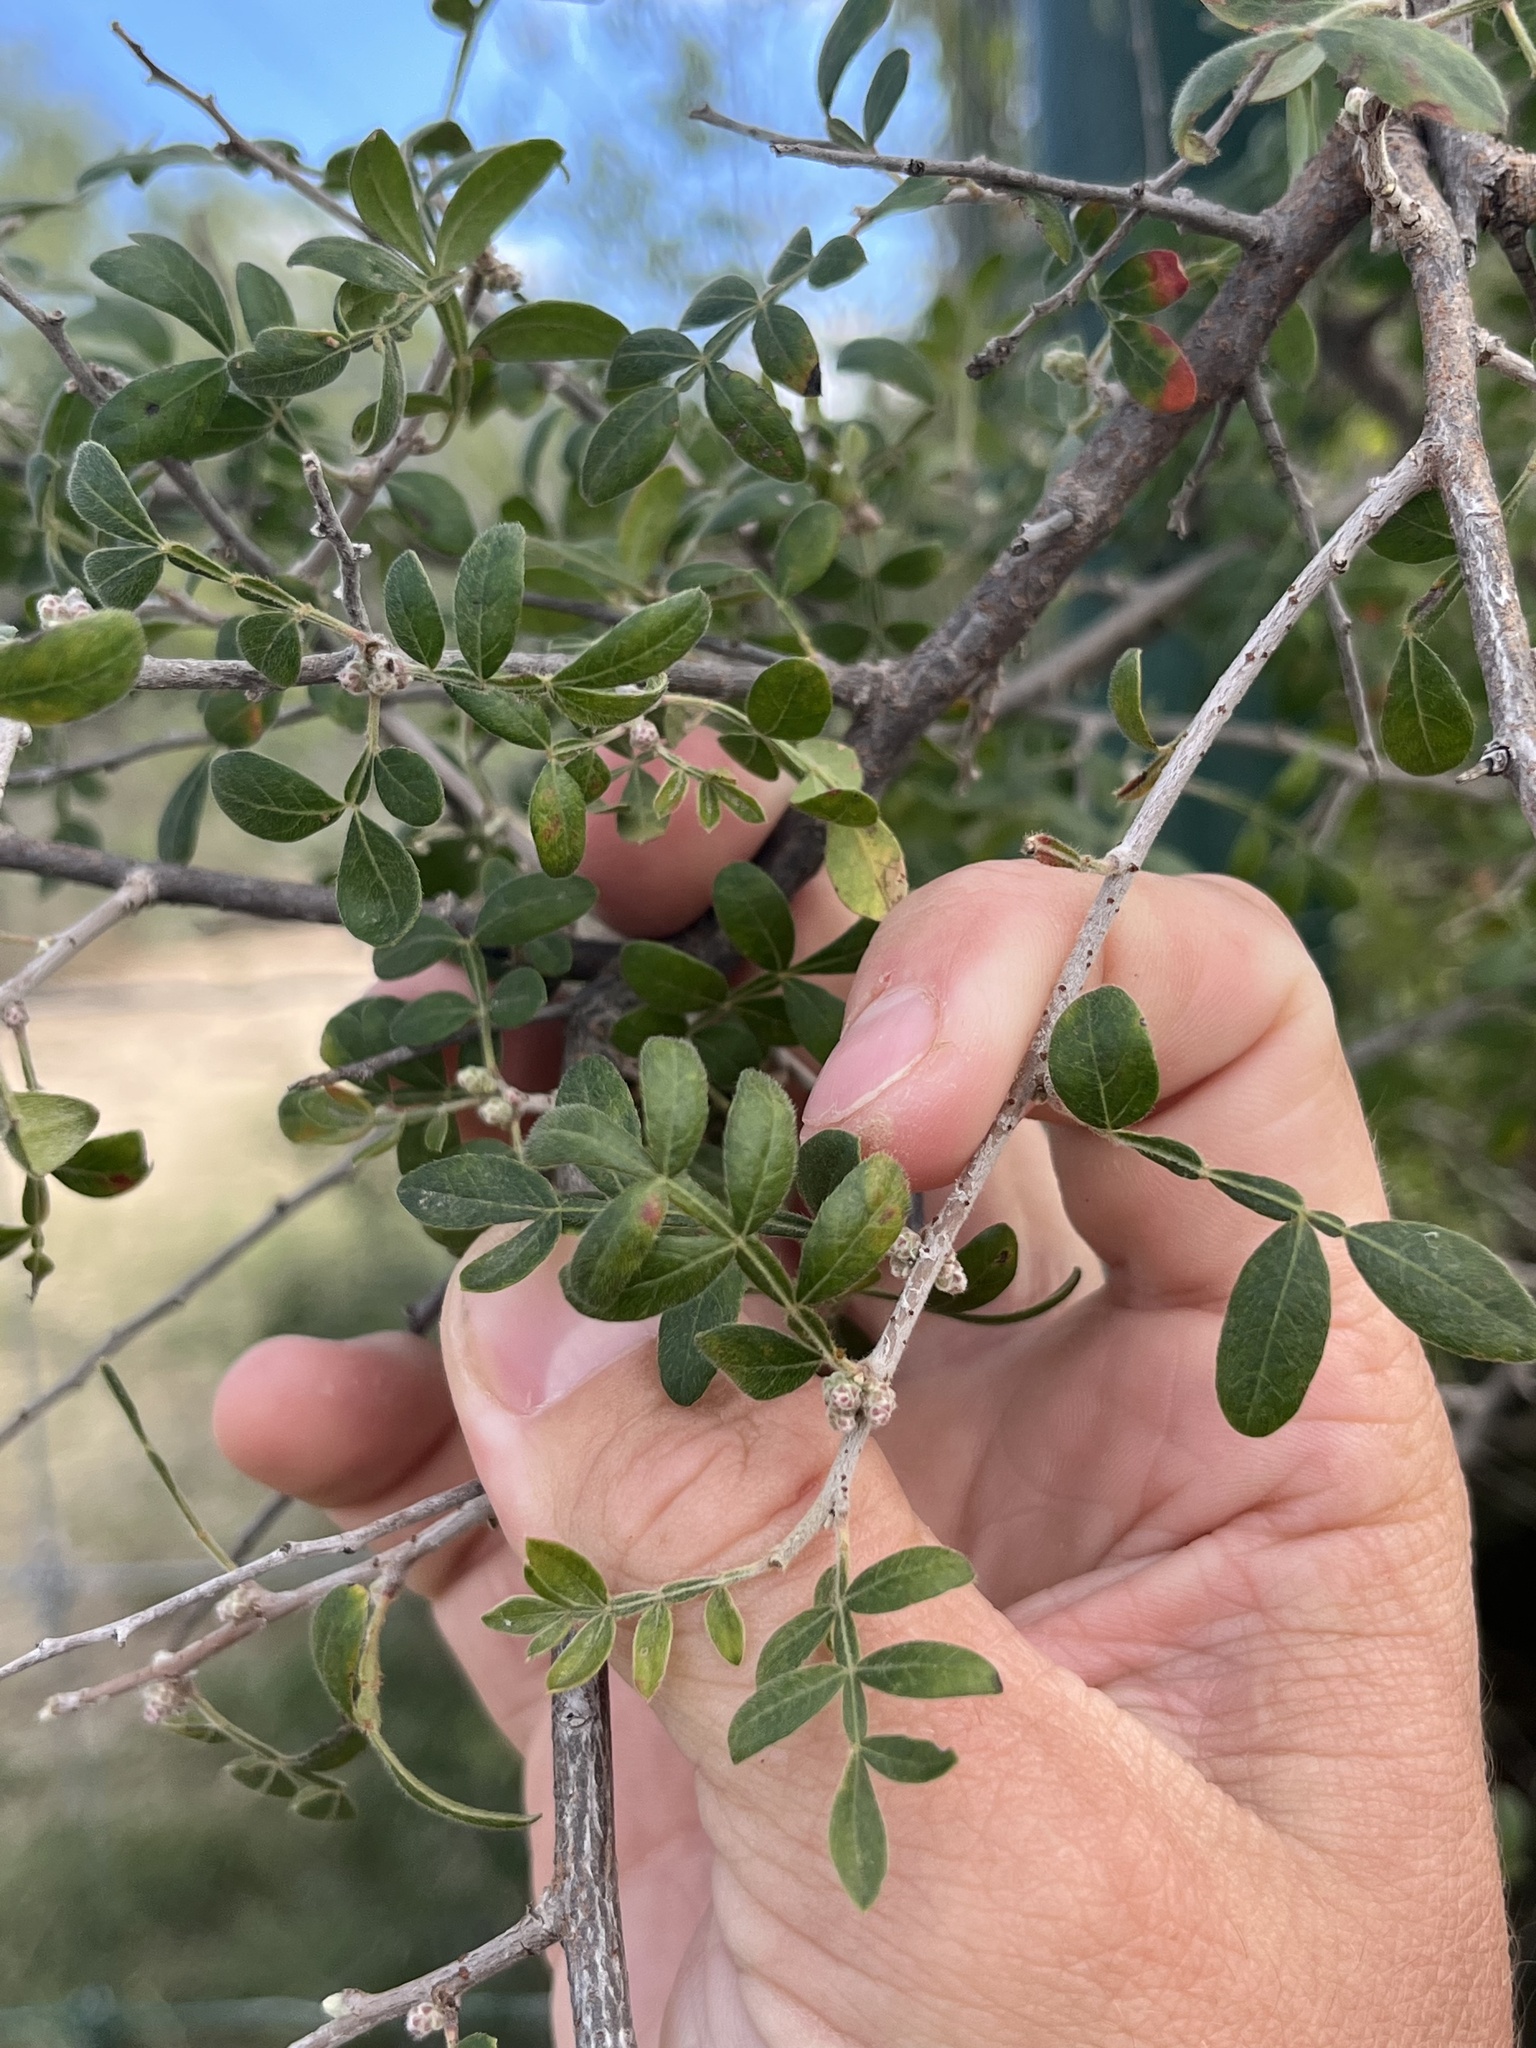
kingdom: Plantae
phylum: Tracheophyta
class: Magnoliopsida
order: Sapindales
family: Anacardiaceae
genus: Rhus
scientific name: Rhus microphylla
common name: Desert sumac
